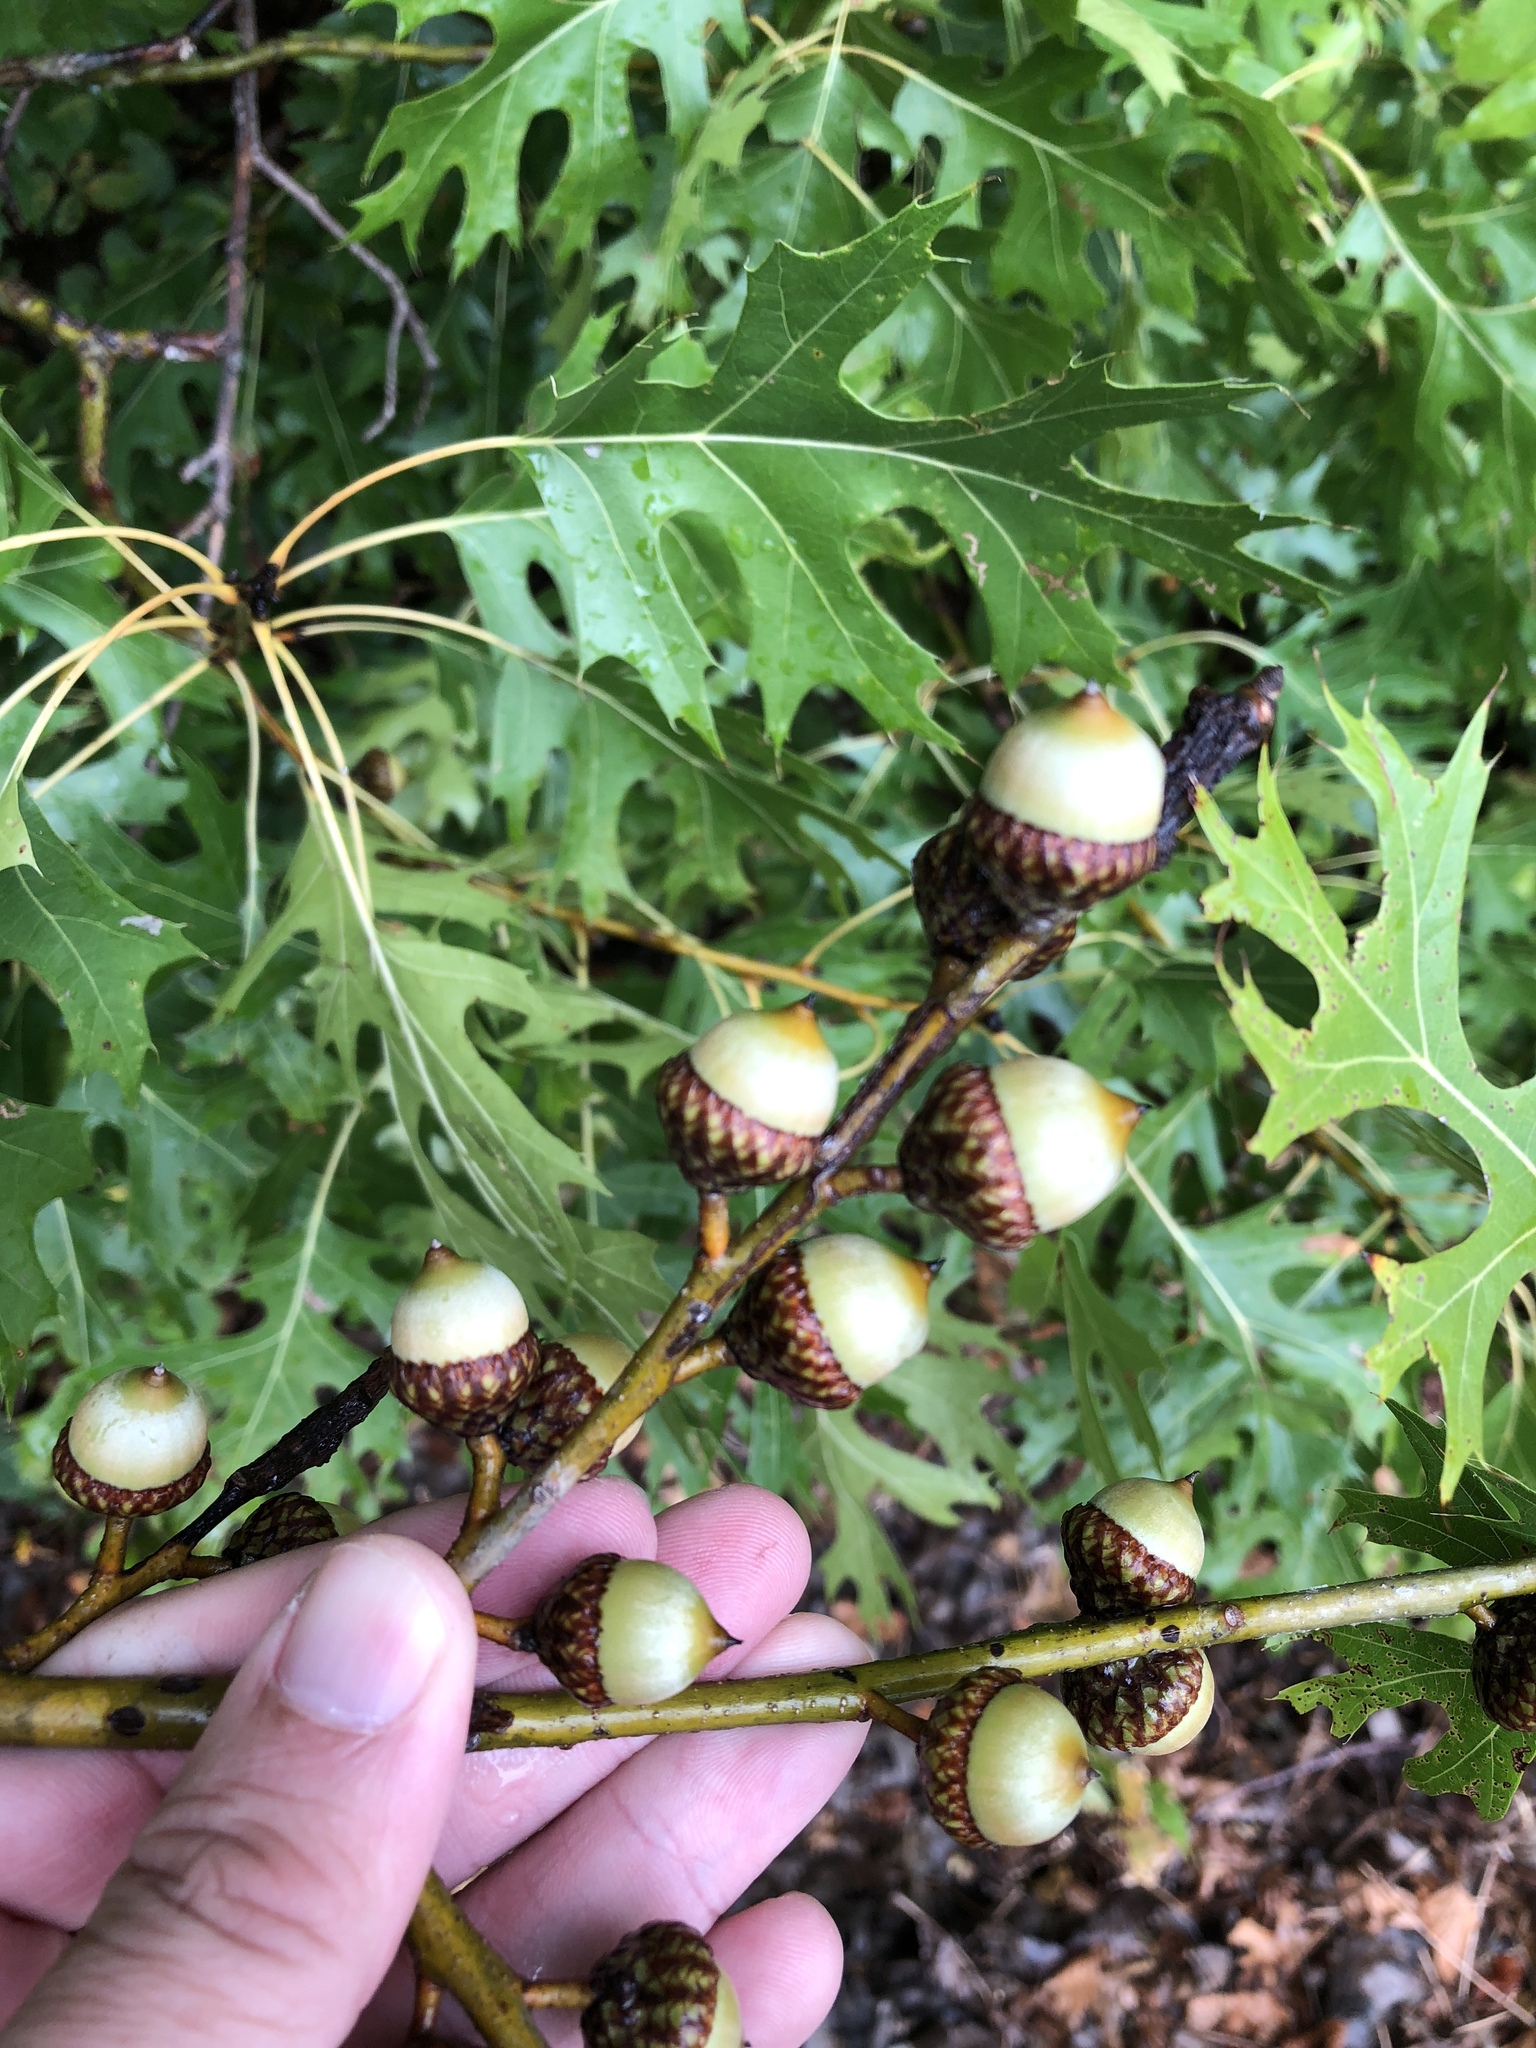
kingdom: Plantae
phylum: Tracheophyta
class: Magnoliopsida
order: Fagales
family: Fagaceae
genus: Quercus
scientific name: Quercus shumardii
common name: Shumard oak
